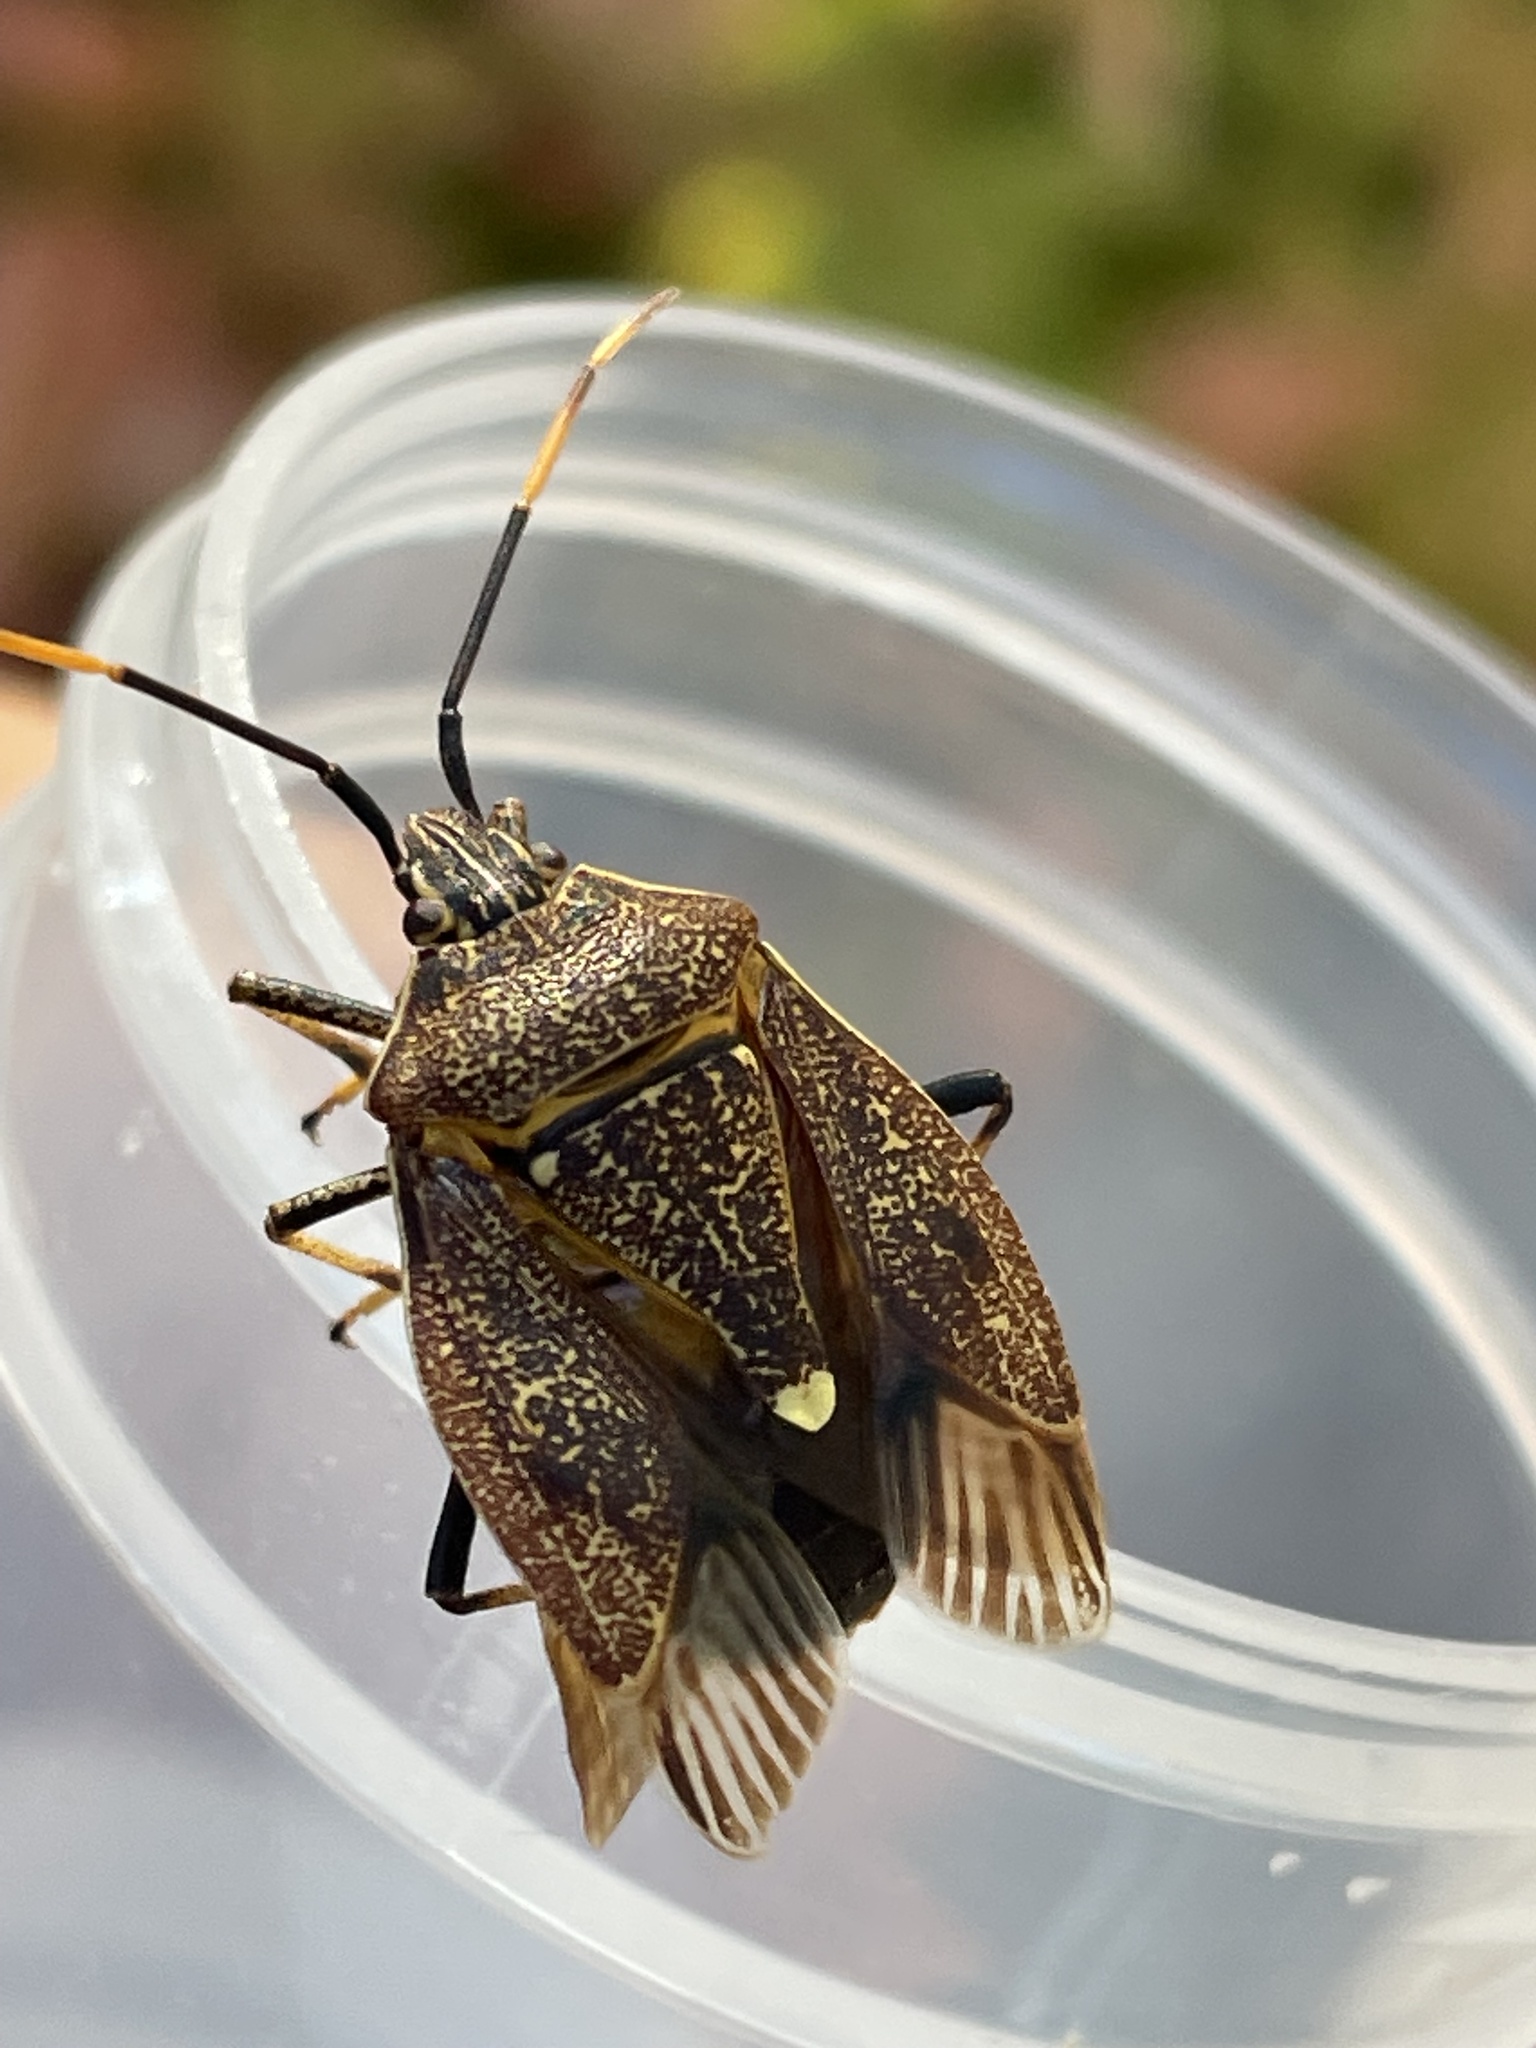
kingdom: Animalia
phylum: Arthropoda
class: Insecta
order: Hemiptera
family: Pentatomidae
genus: Poecilometis
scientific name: Poecilometis
